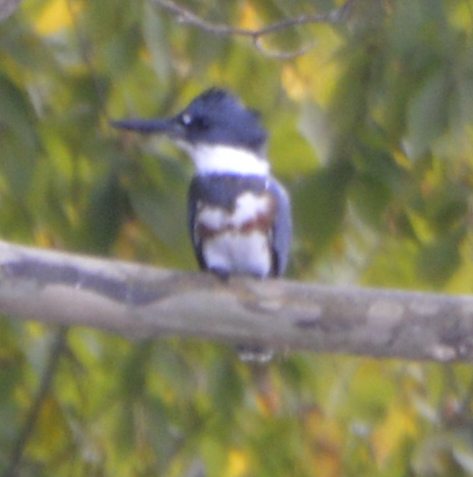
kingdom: Animalia
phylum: Chordata
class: Aves
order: Coraciiformes
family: Alcedinidae
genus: Megaceryle
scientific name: Megaceryle alcyon
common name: Belted kingfisher
